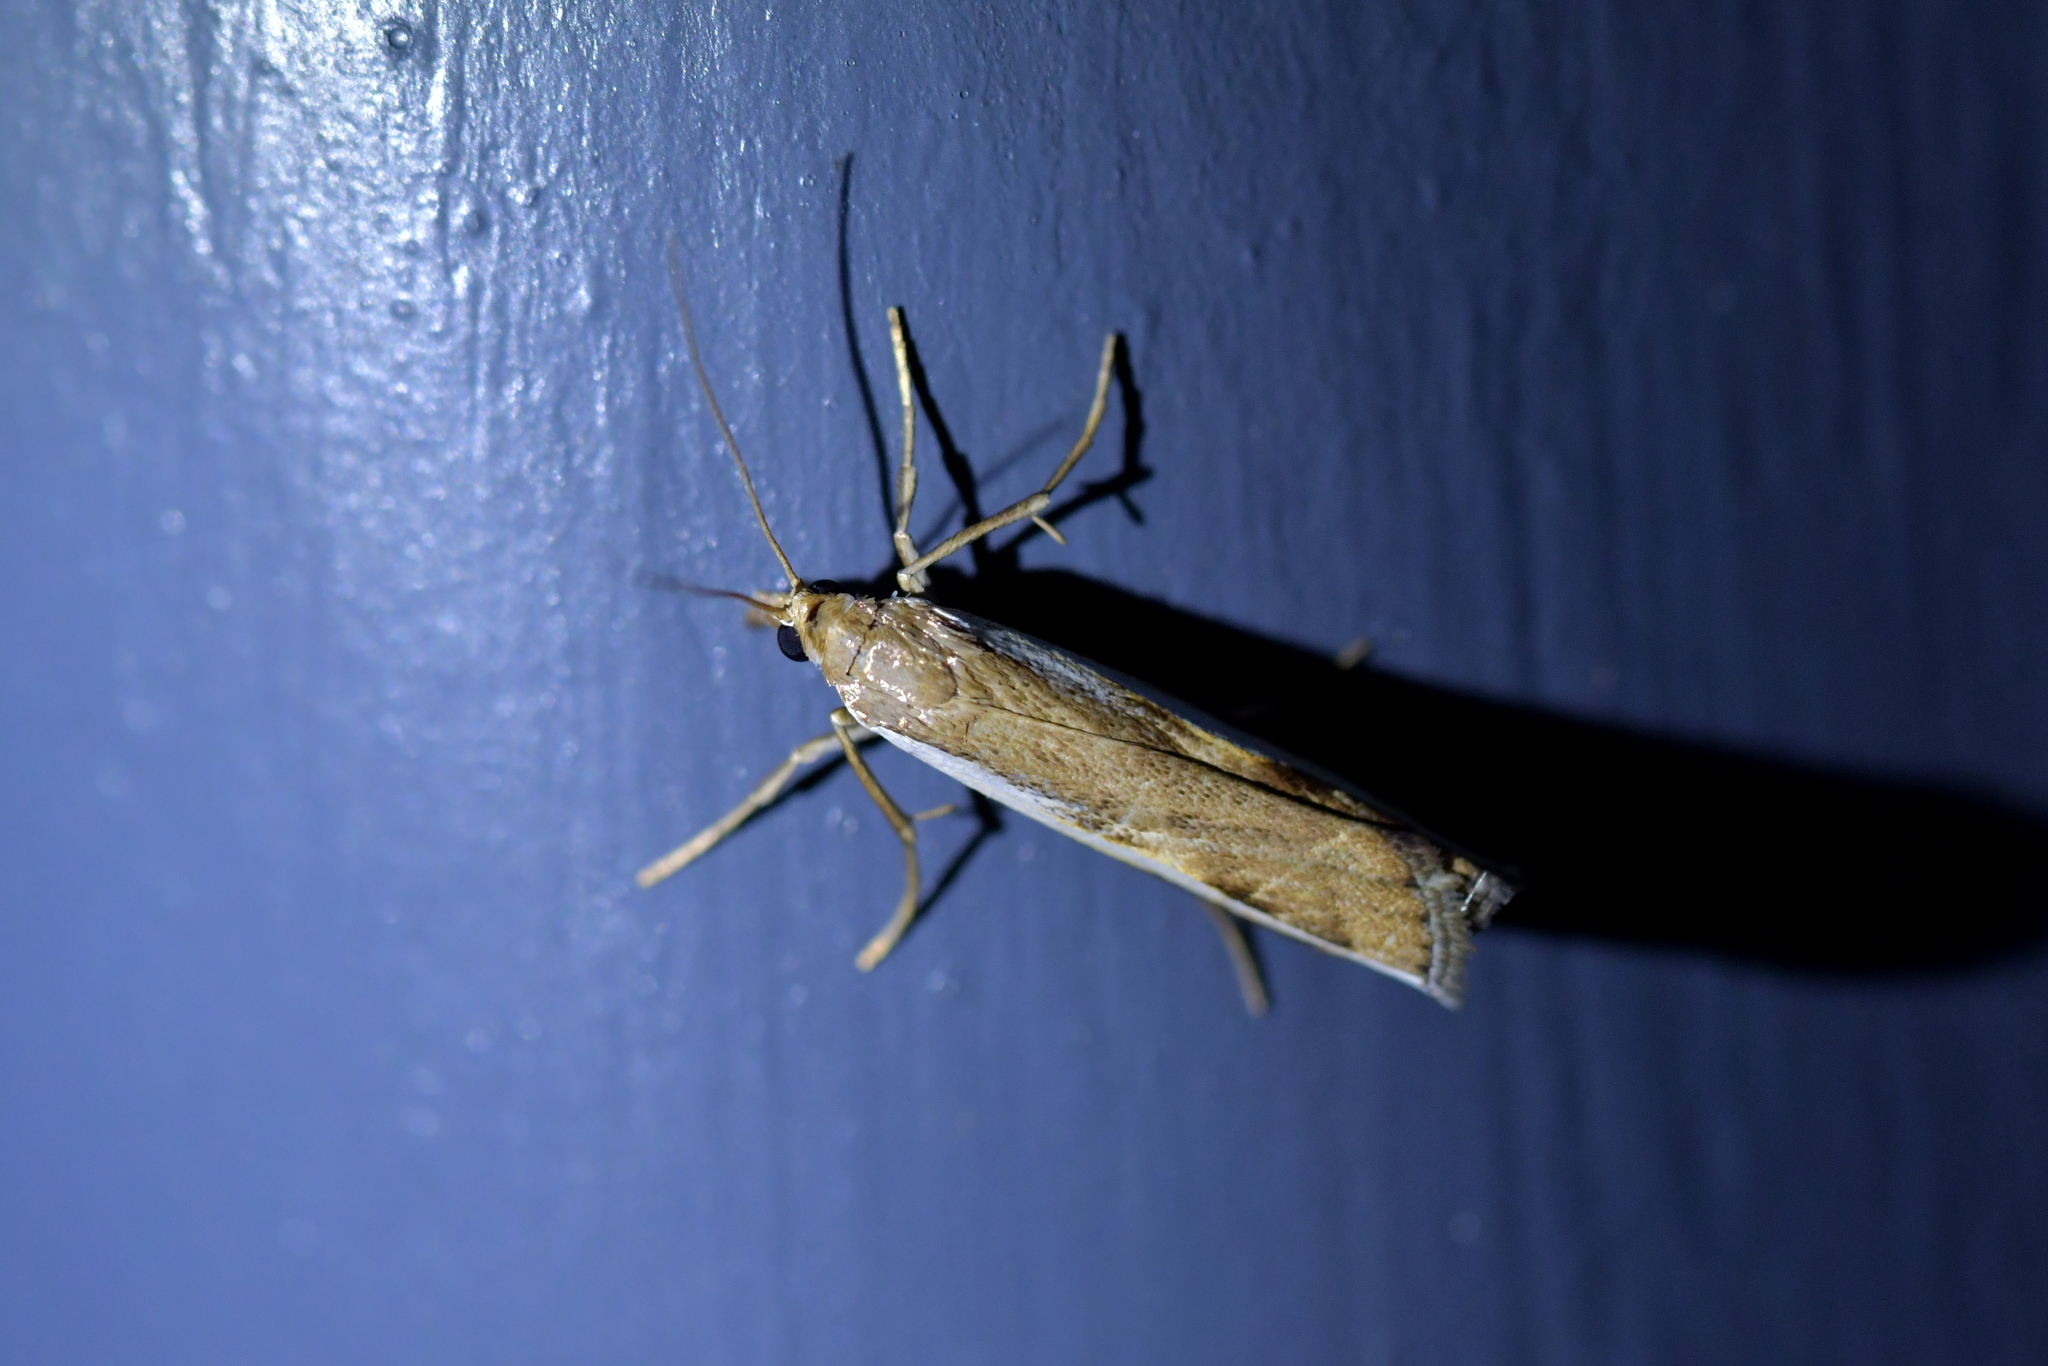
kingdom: Animalia
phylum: Arthropoda
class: Insecta
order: Lepidoptera
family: Crambidae
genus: Orocrambus
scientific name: Orocrambus flexuosellus
